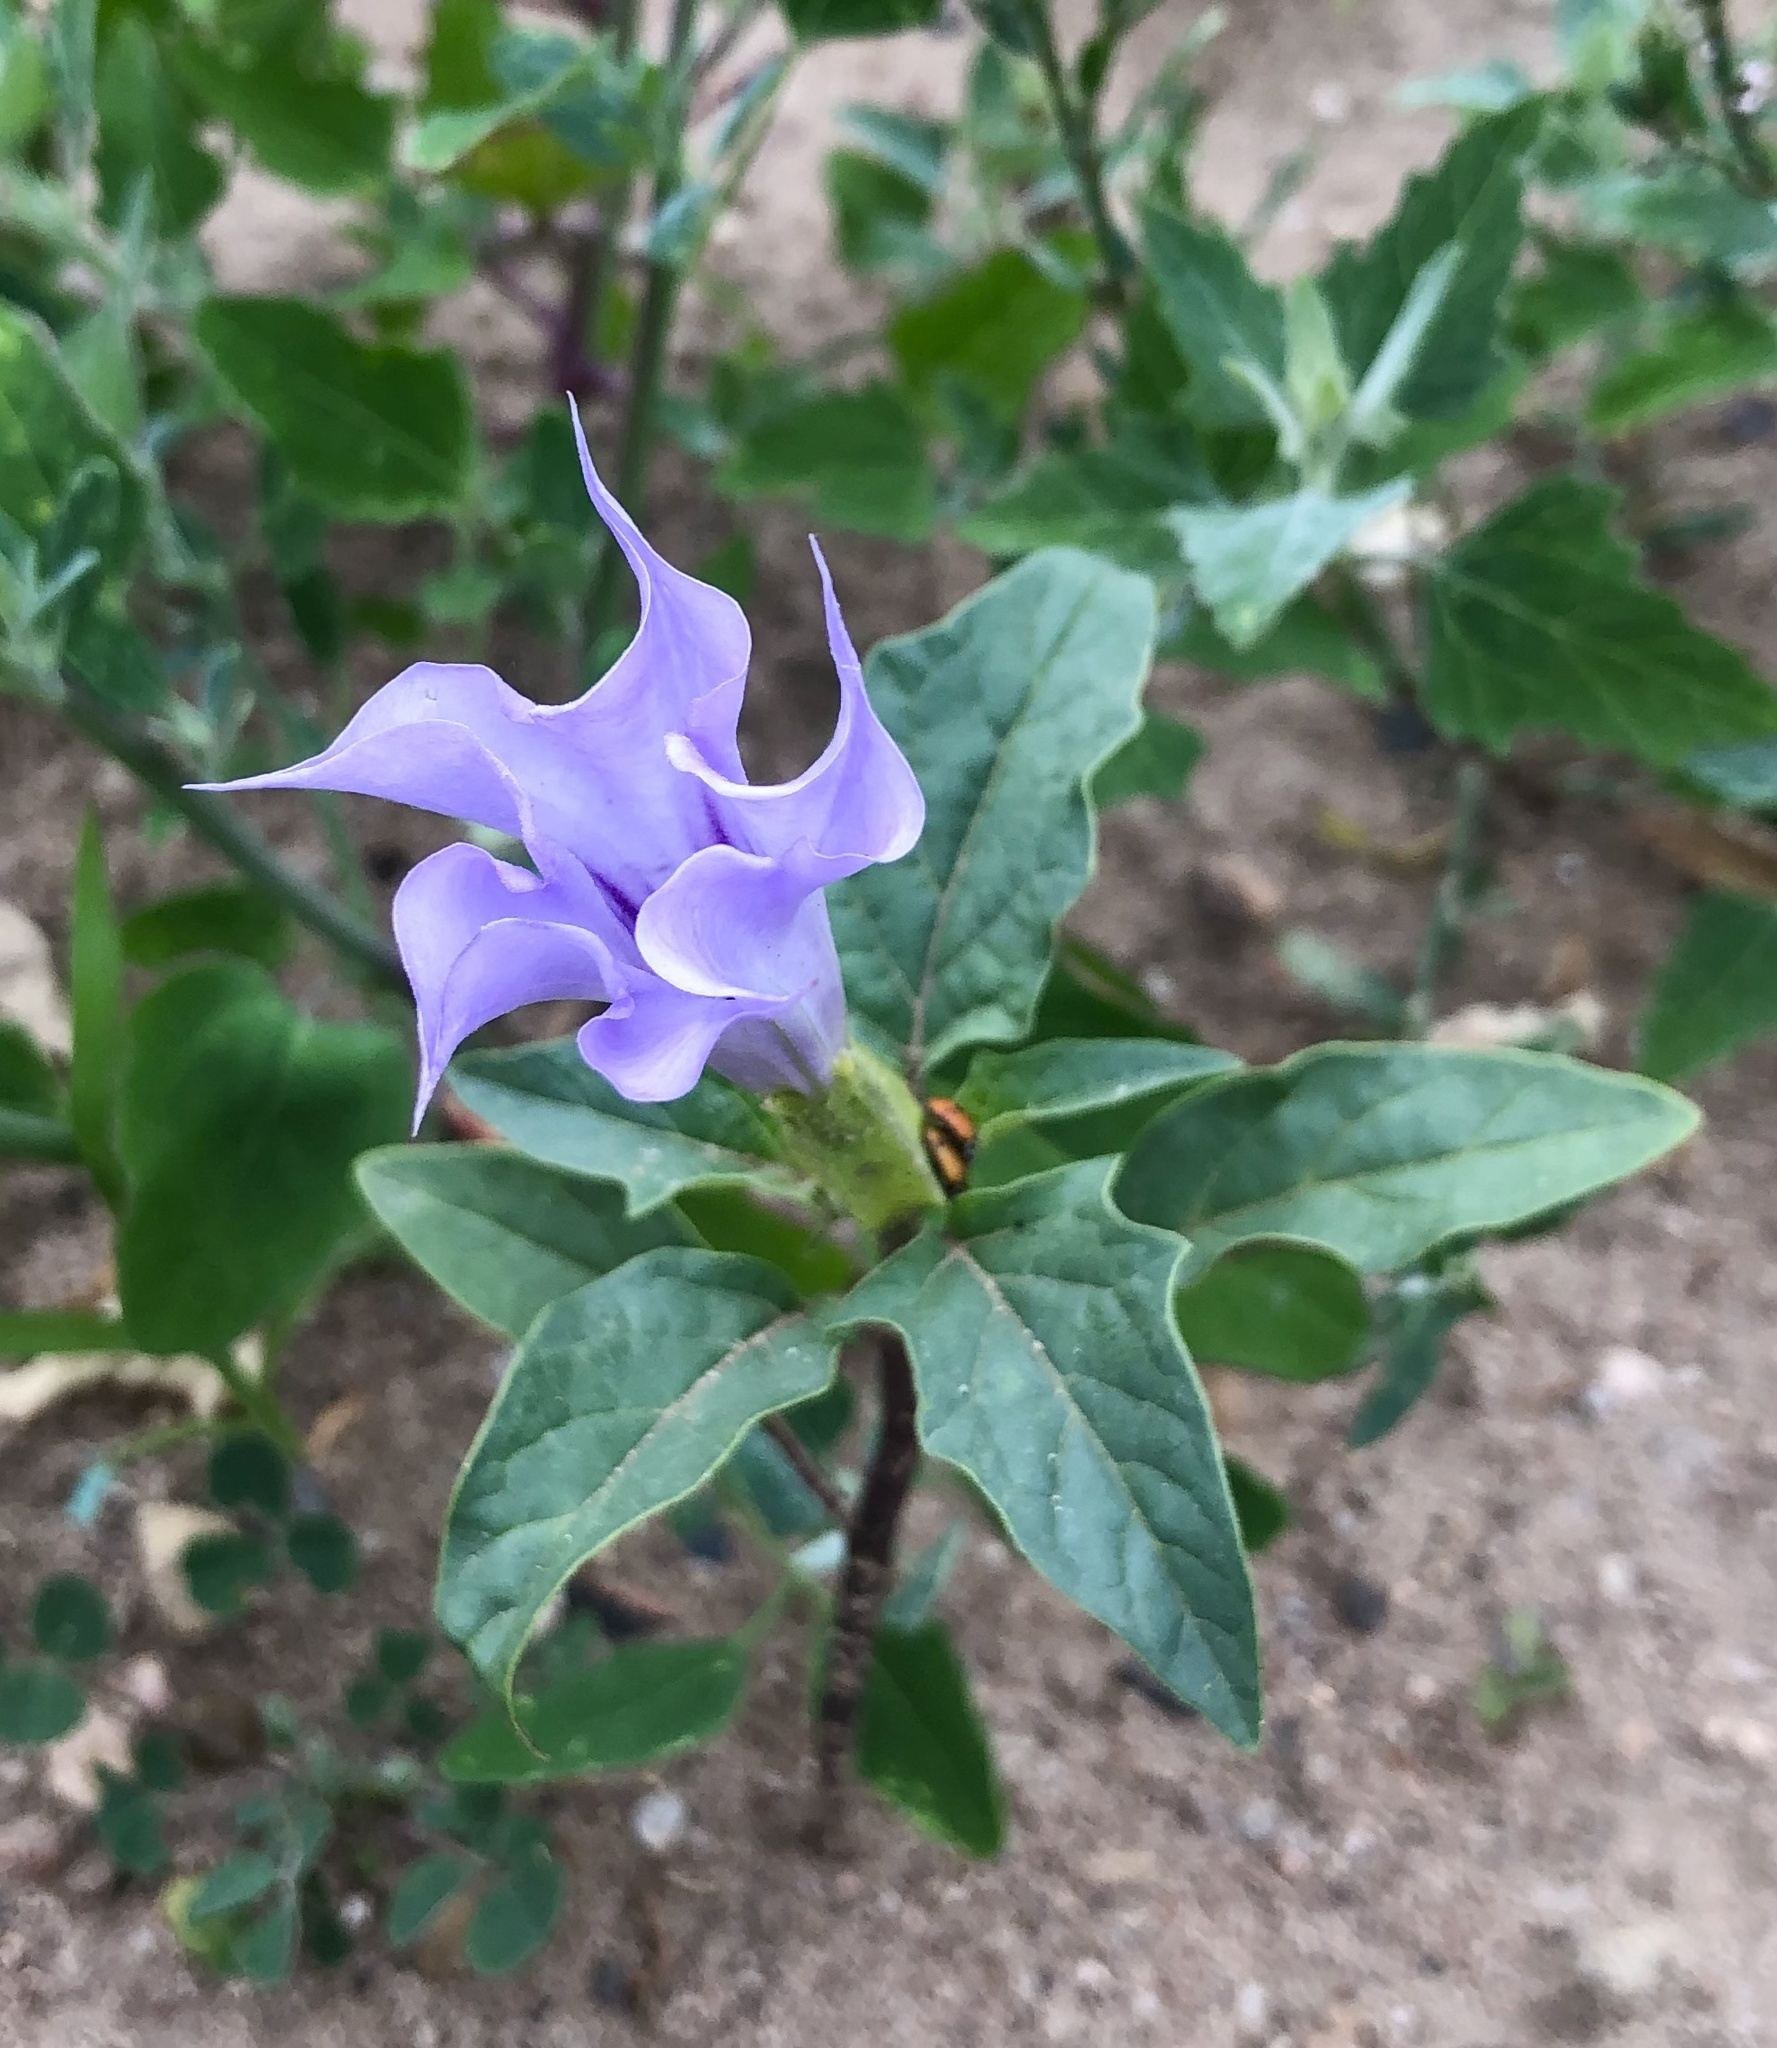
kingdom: Plantae
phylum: Tracheophyta
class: Magnoliopsida
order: Solanales
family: Solanaceae
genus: Datura
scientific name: Datura stramonium
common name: Thorn-apple
